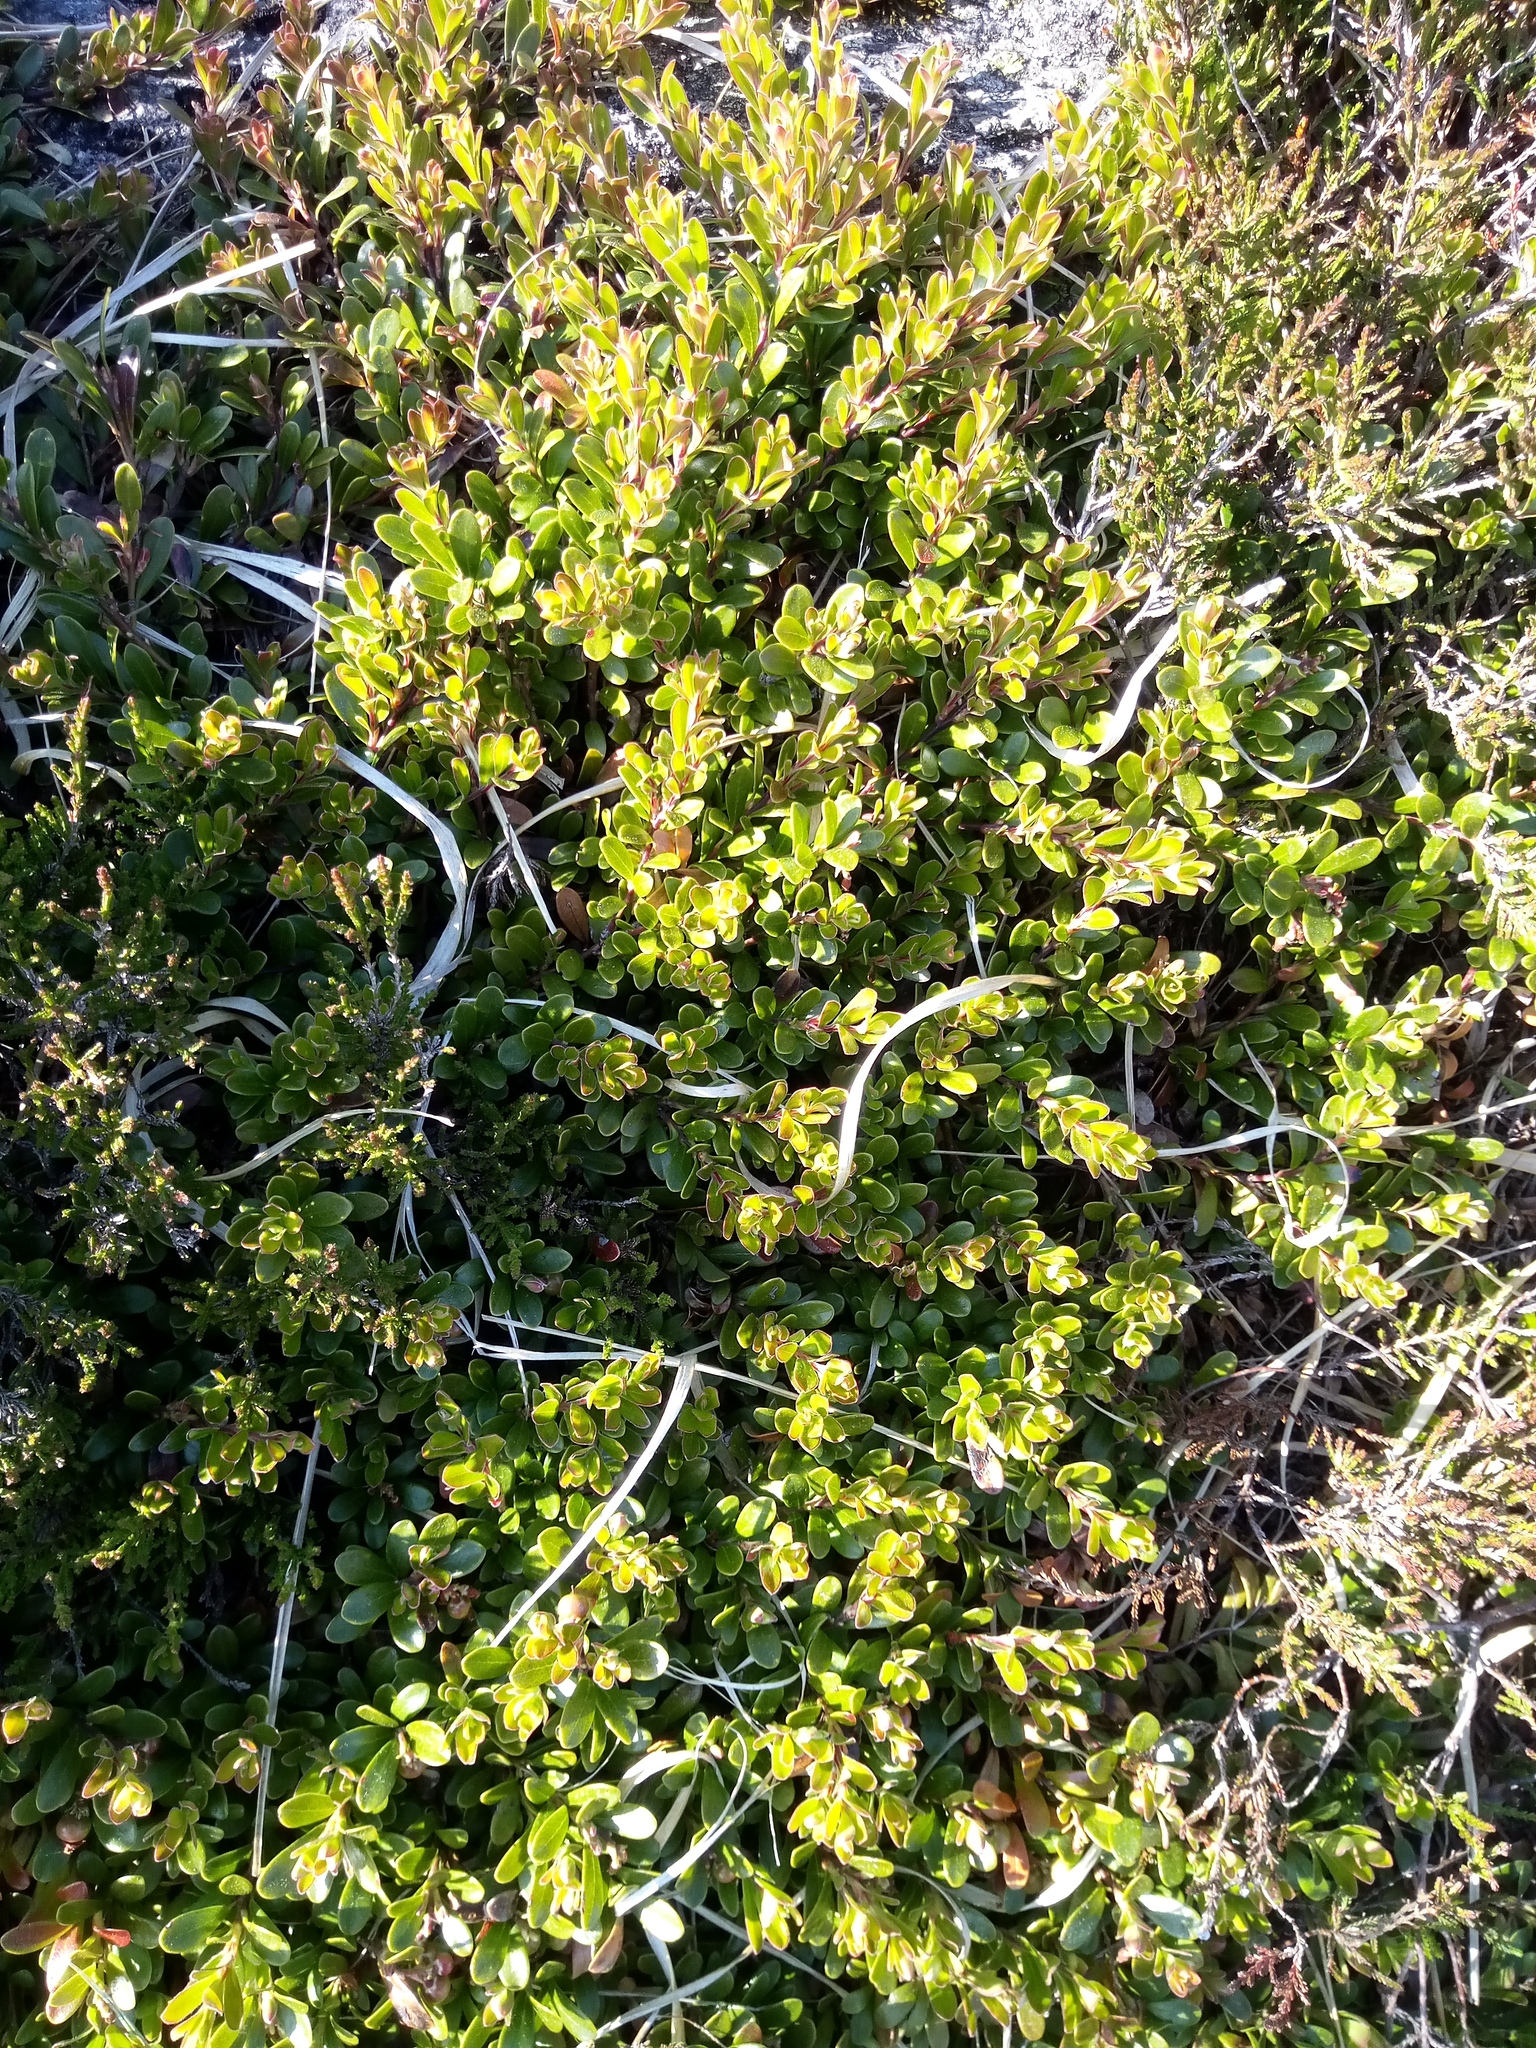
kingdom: Plantae
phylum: Tracheophyta
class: Magnoliopsida
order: Ericales
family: Ericaceae
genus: Arctostaphylos
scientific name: Arctostaphylos uva-ursi
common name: Bearberry
